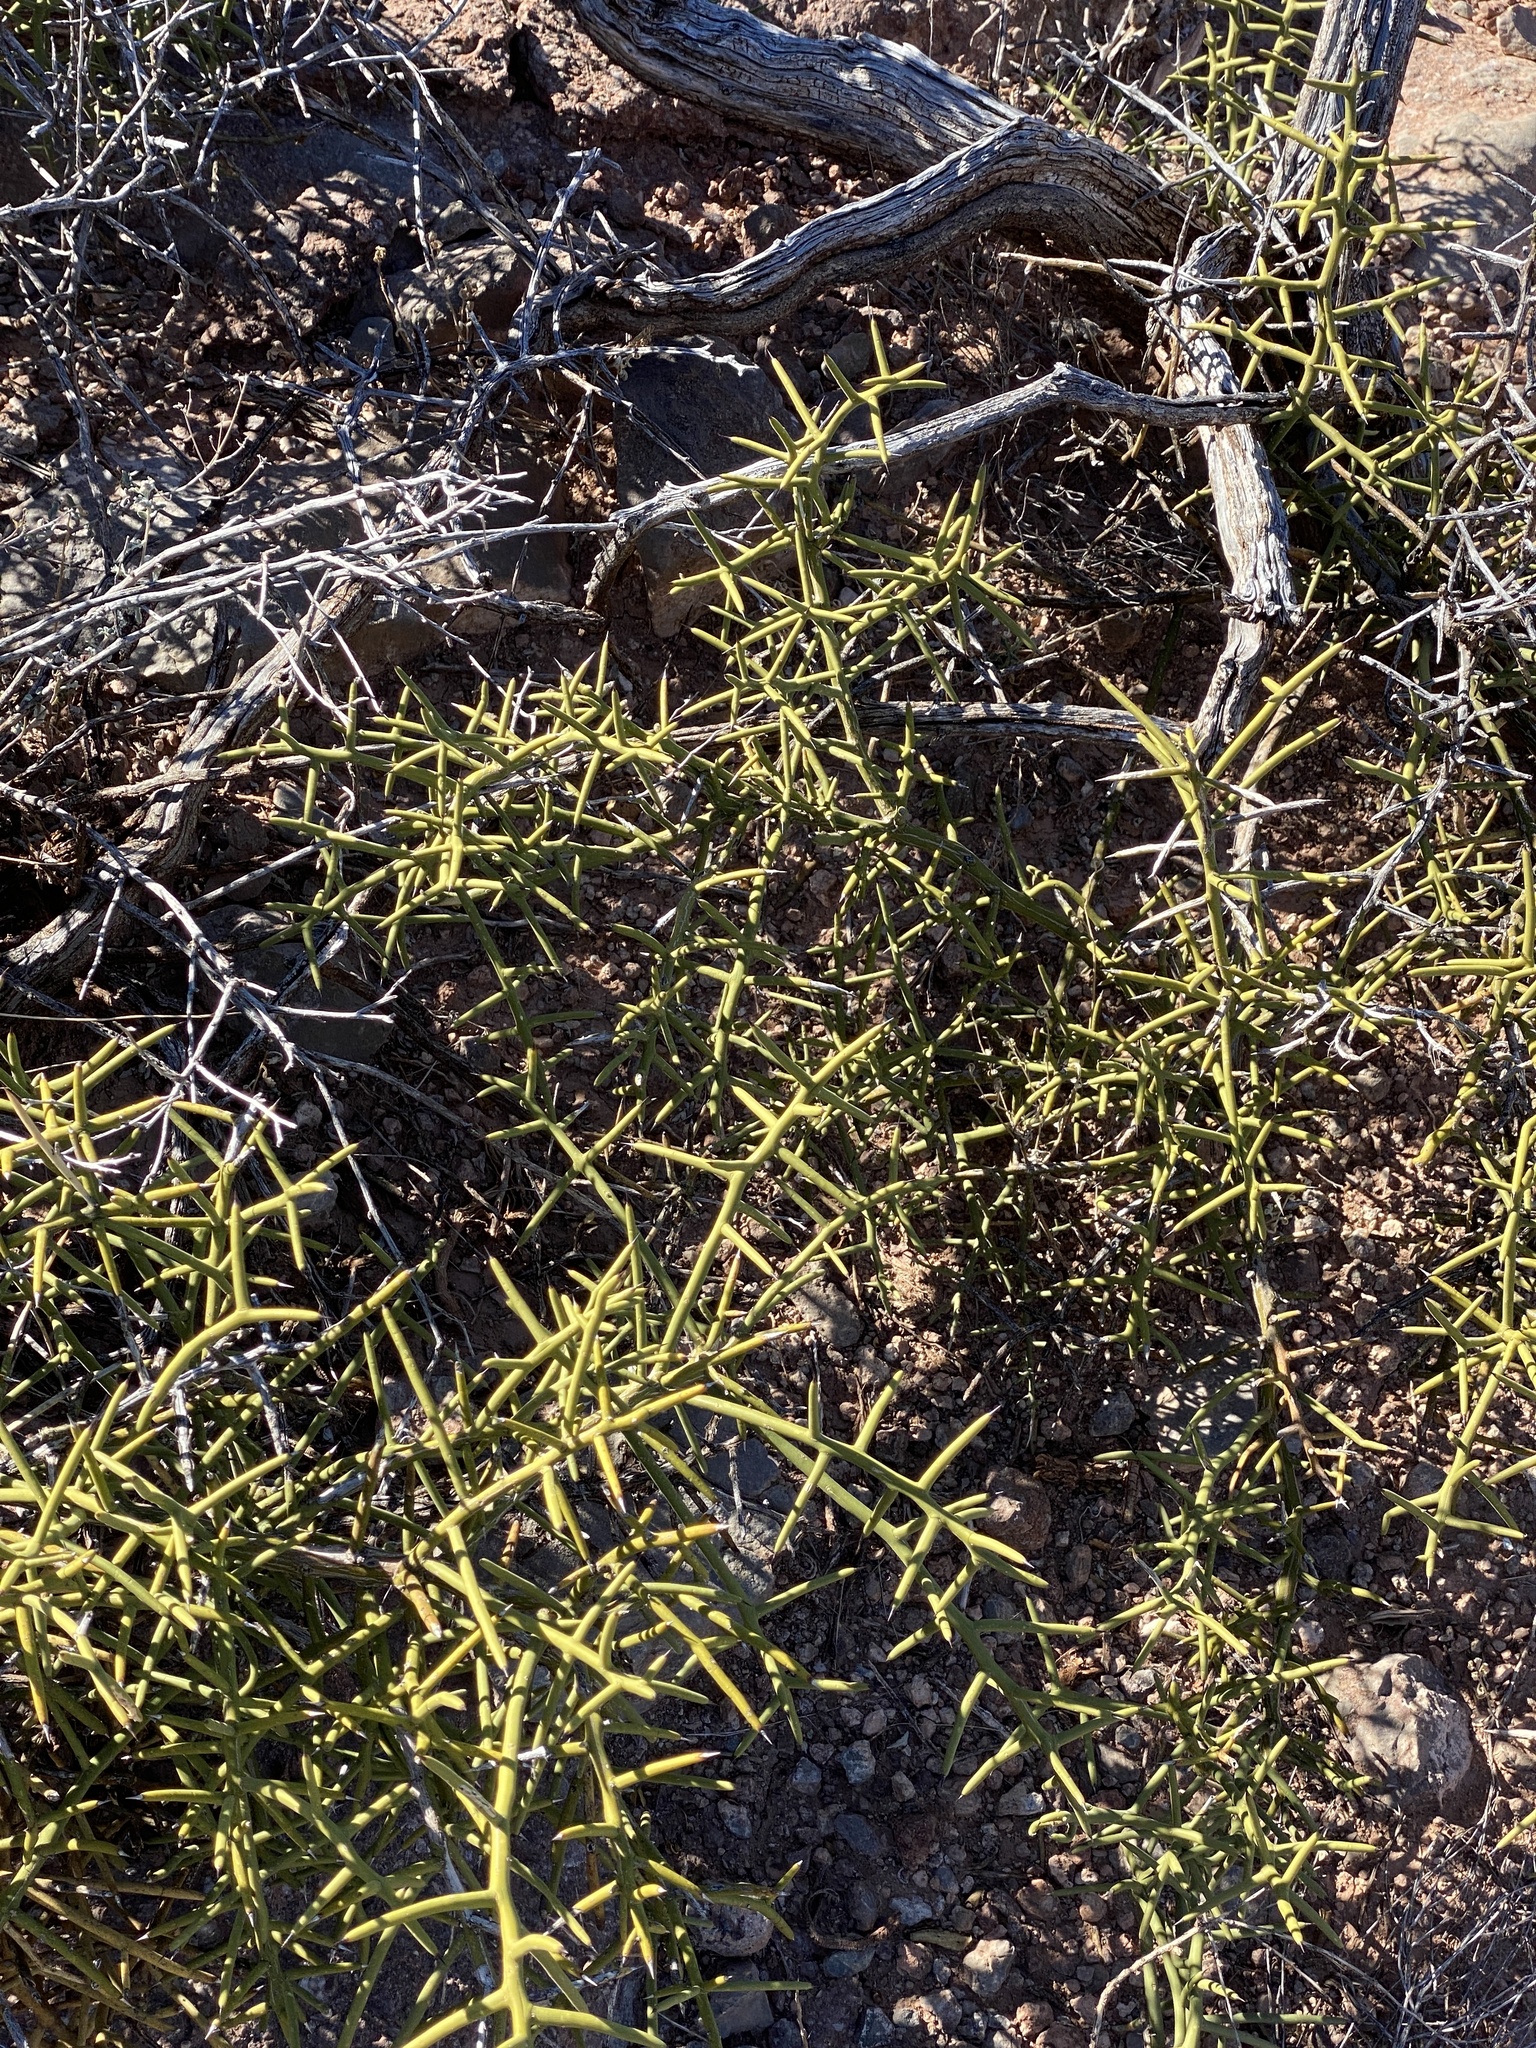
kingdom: Plantae
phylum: Tracheophyta
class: Magnoliopsida
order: Brassicales
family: Koeberliniaceae
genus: Koeberlinia
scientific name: Koeberlinia spinosa
